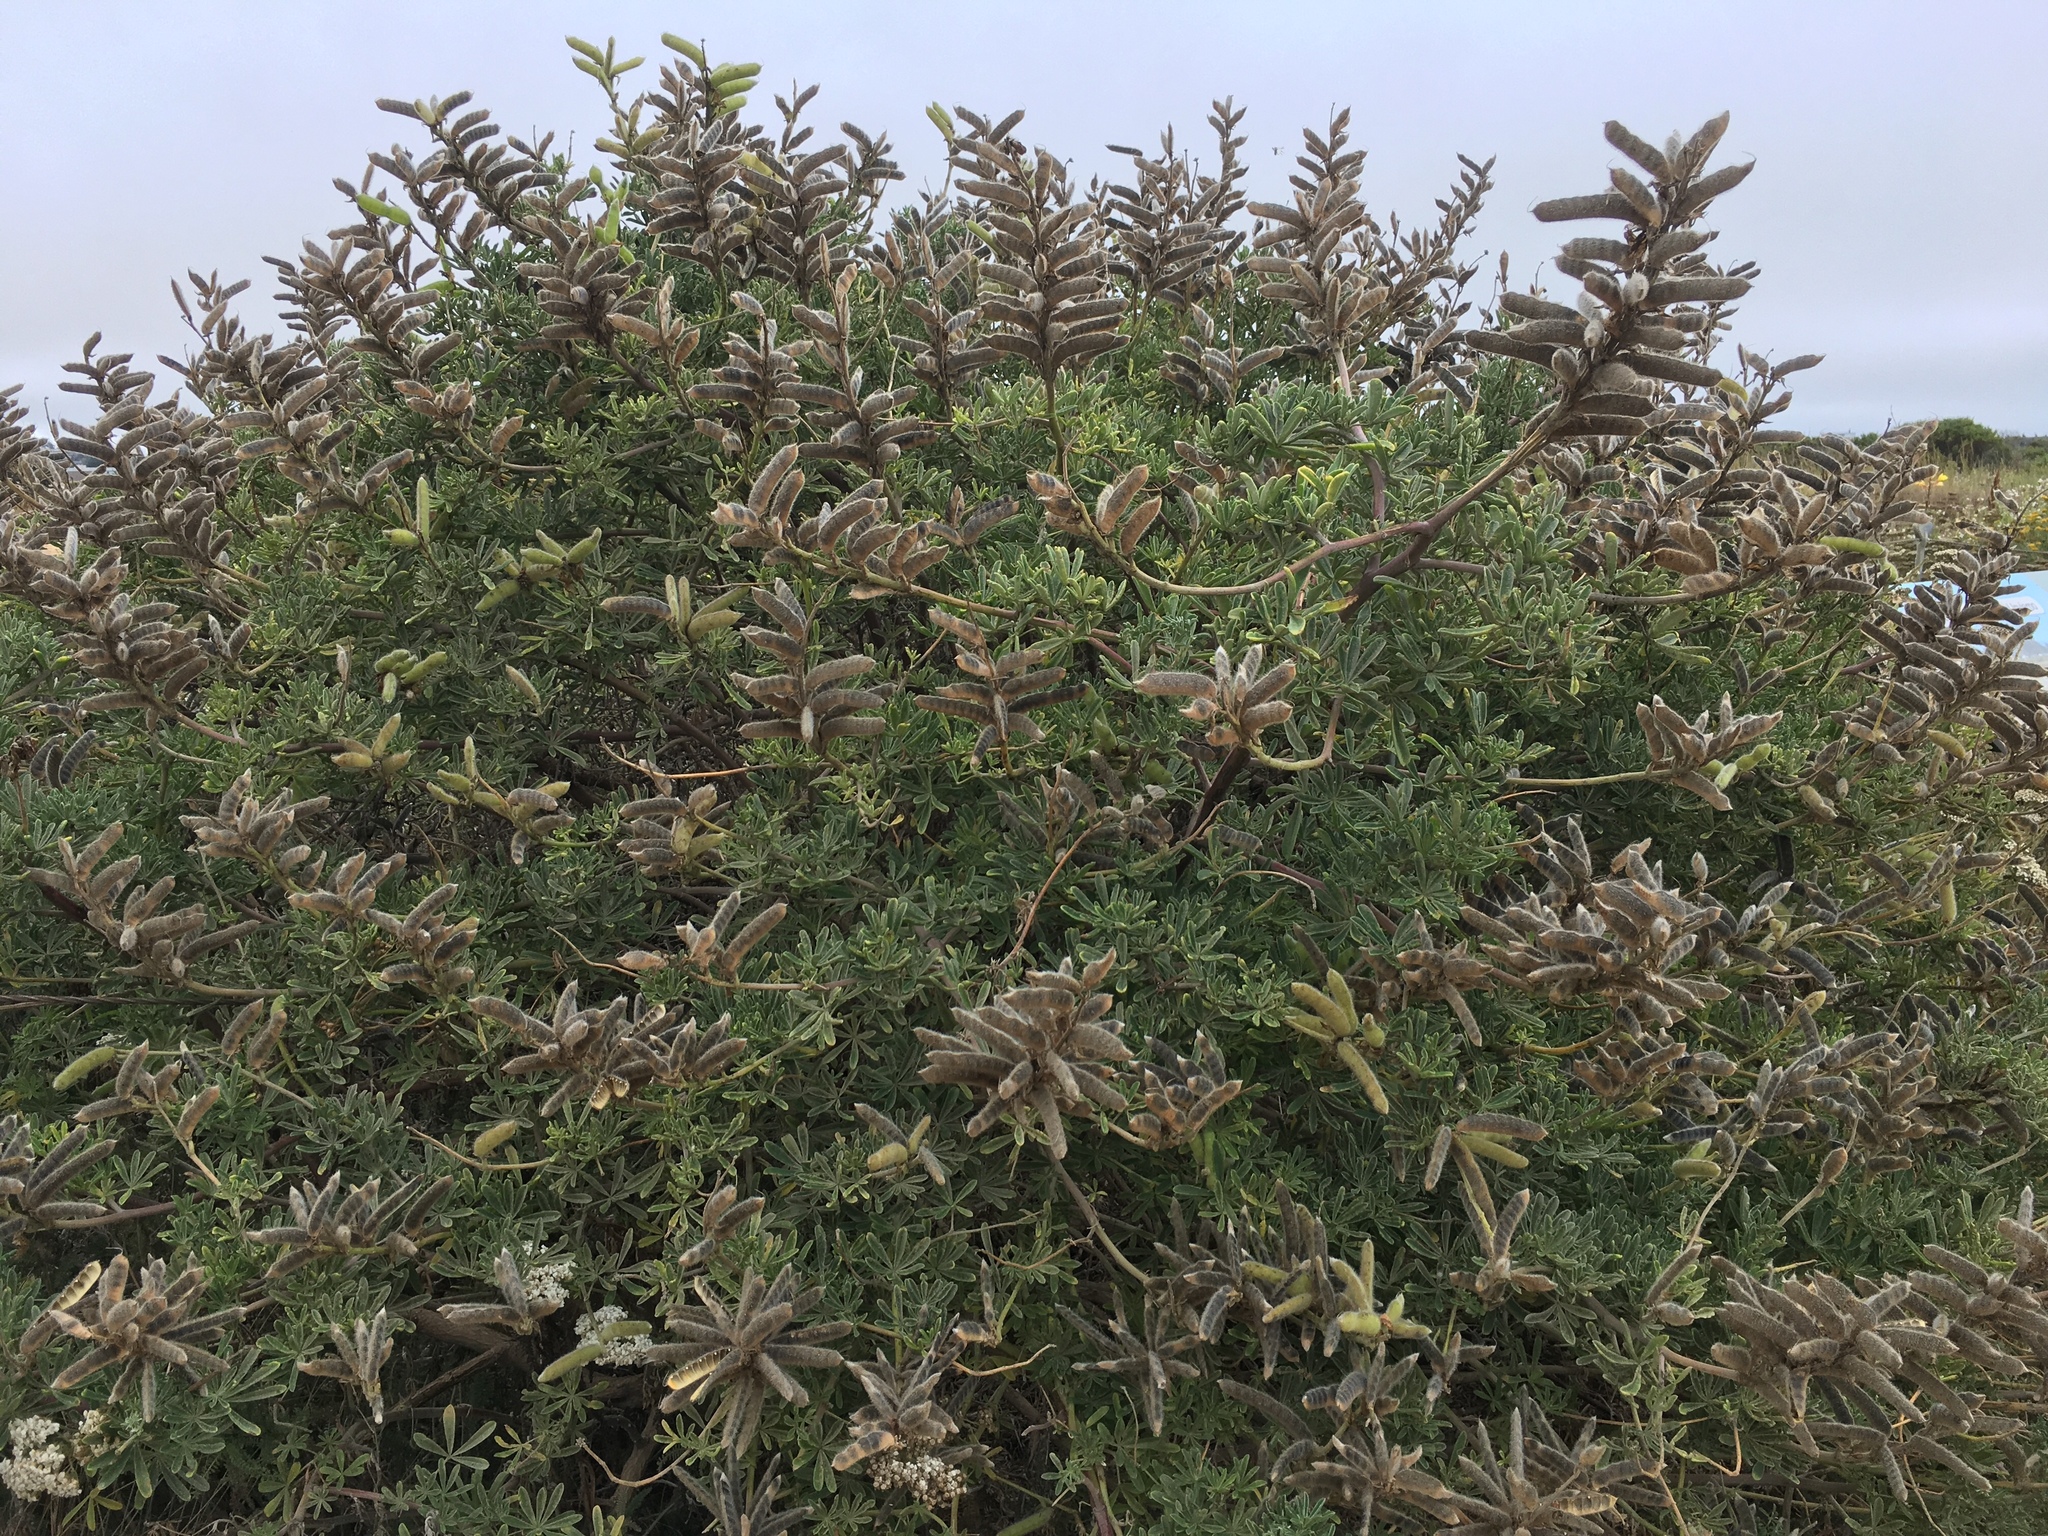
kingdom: Plantae
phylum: Tracheophyta
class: Magnoliopsida
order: Fabales
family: Fabaceae
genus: Lupinus
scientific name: Lupinus arboreus
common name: Yellow bush lupine
